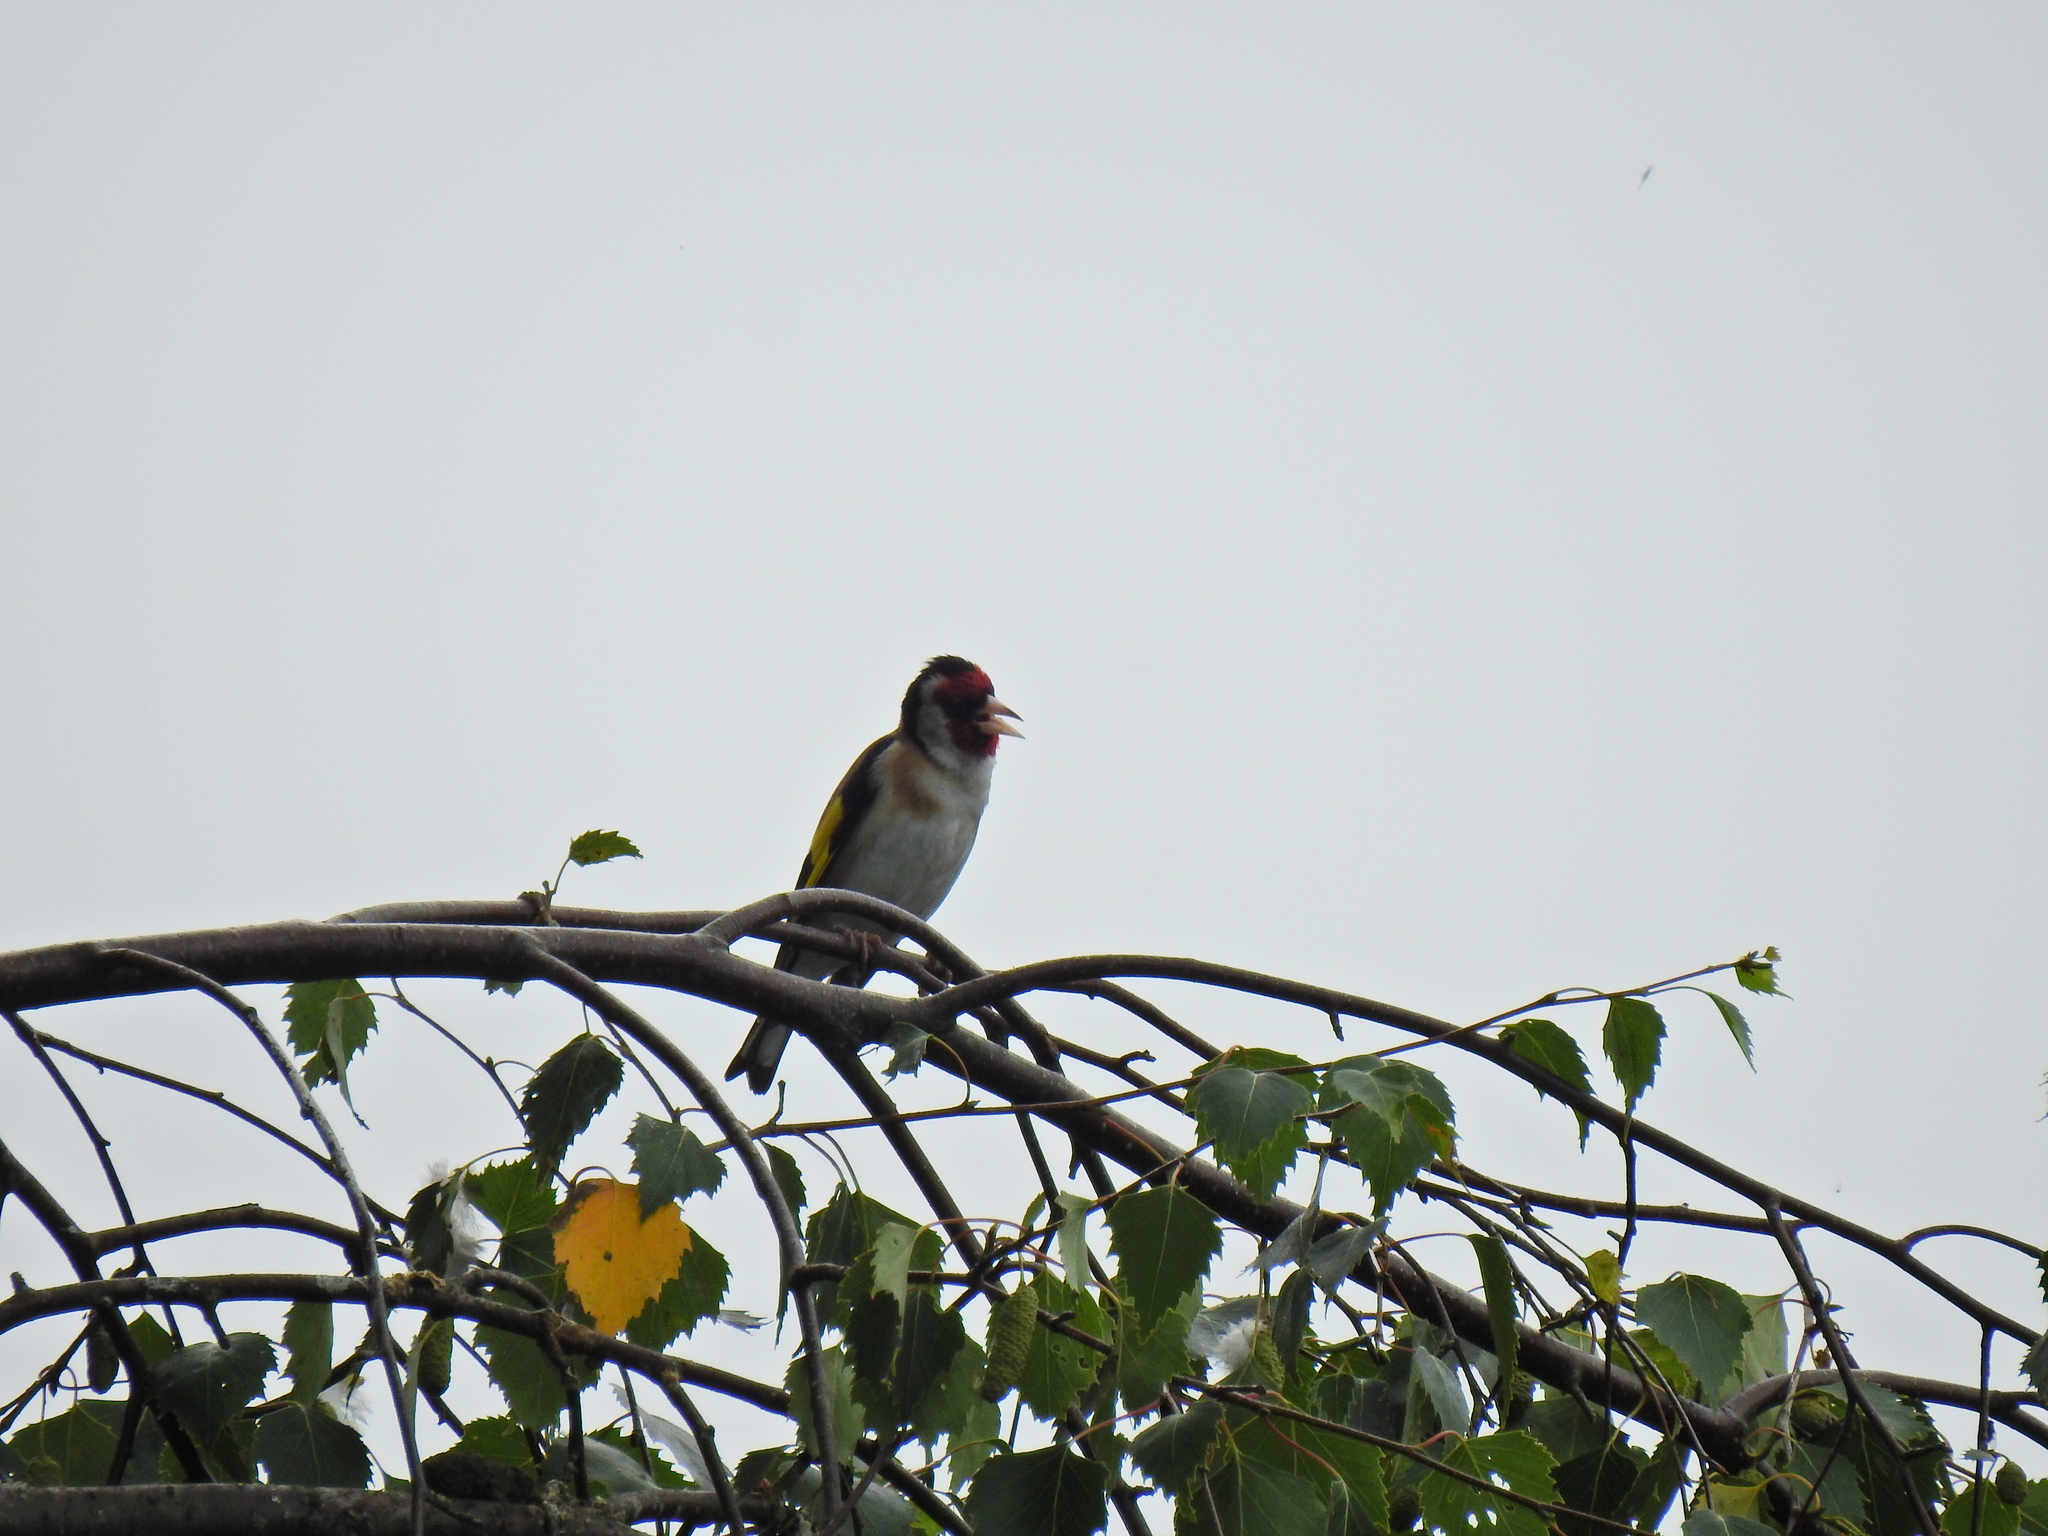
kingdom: Animalia
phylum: Chordata
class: Aves
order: Passeriformes
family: Fringillidae
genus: Carduelis
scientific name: Carduelis carduelis
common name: European goldfinch
